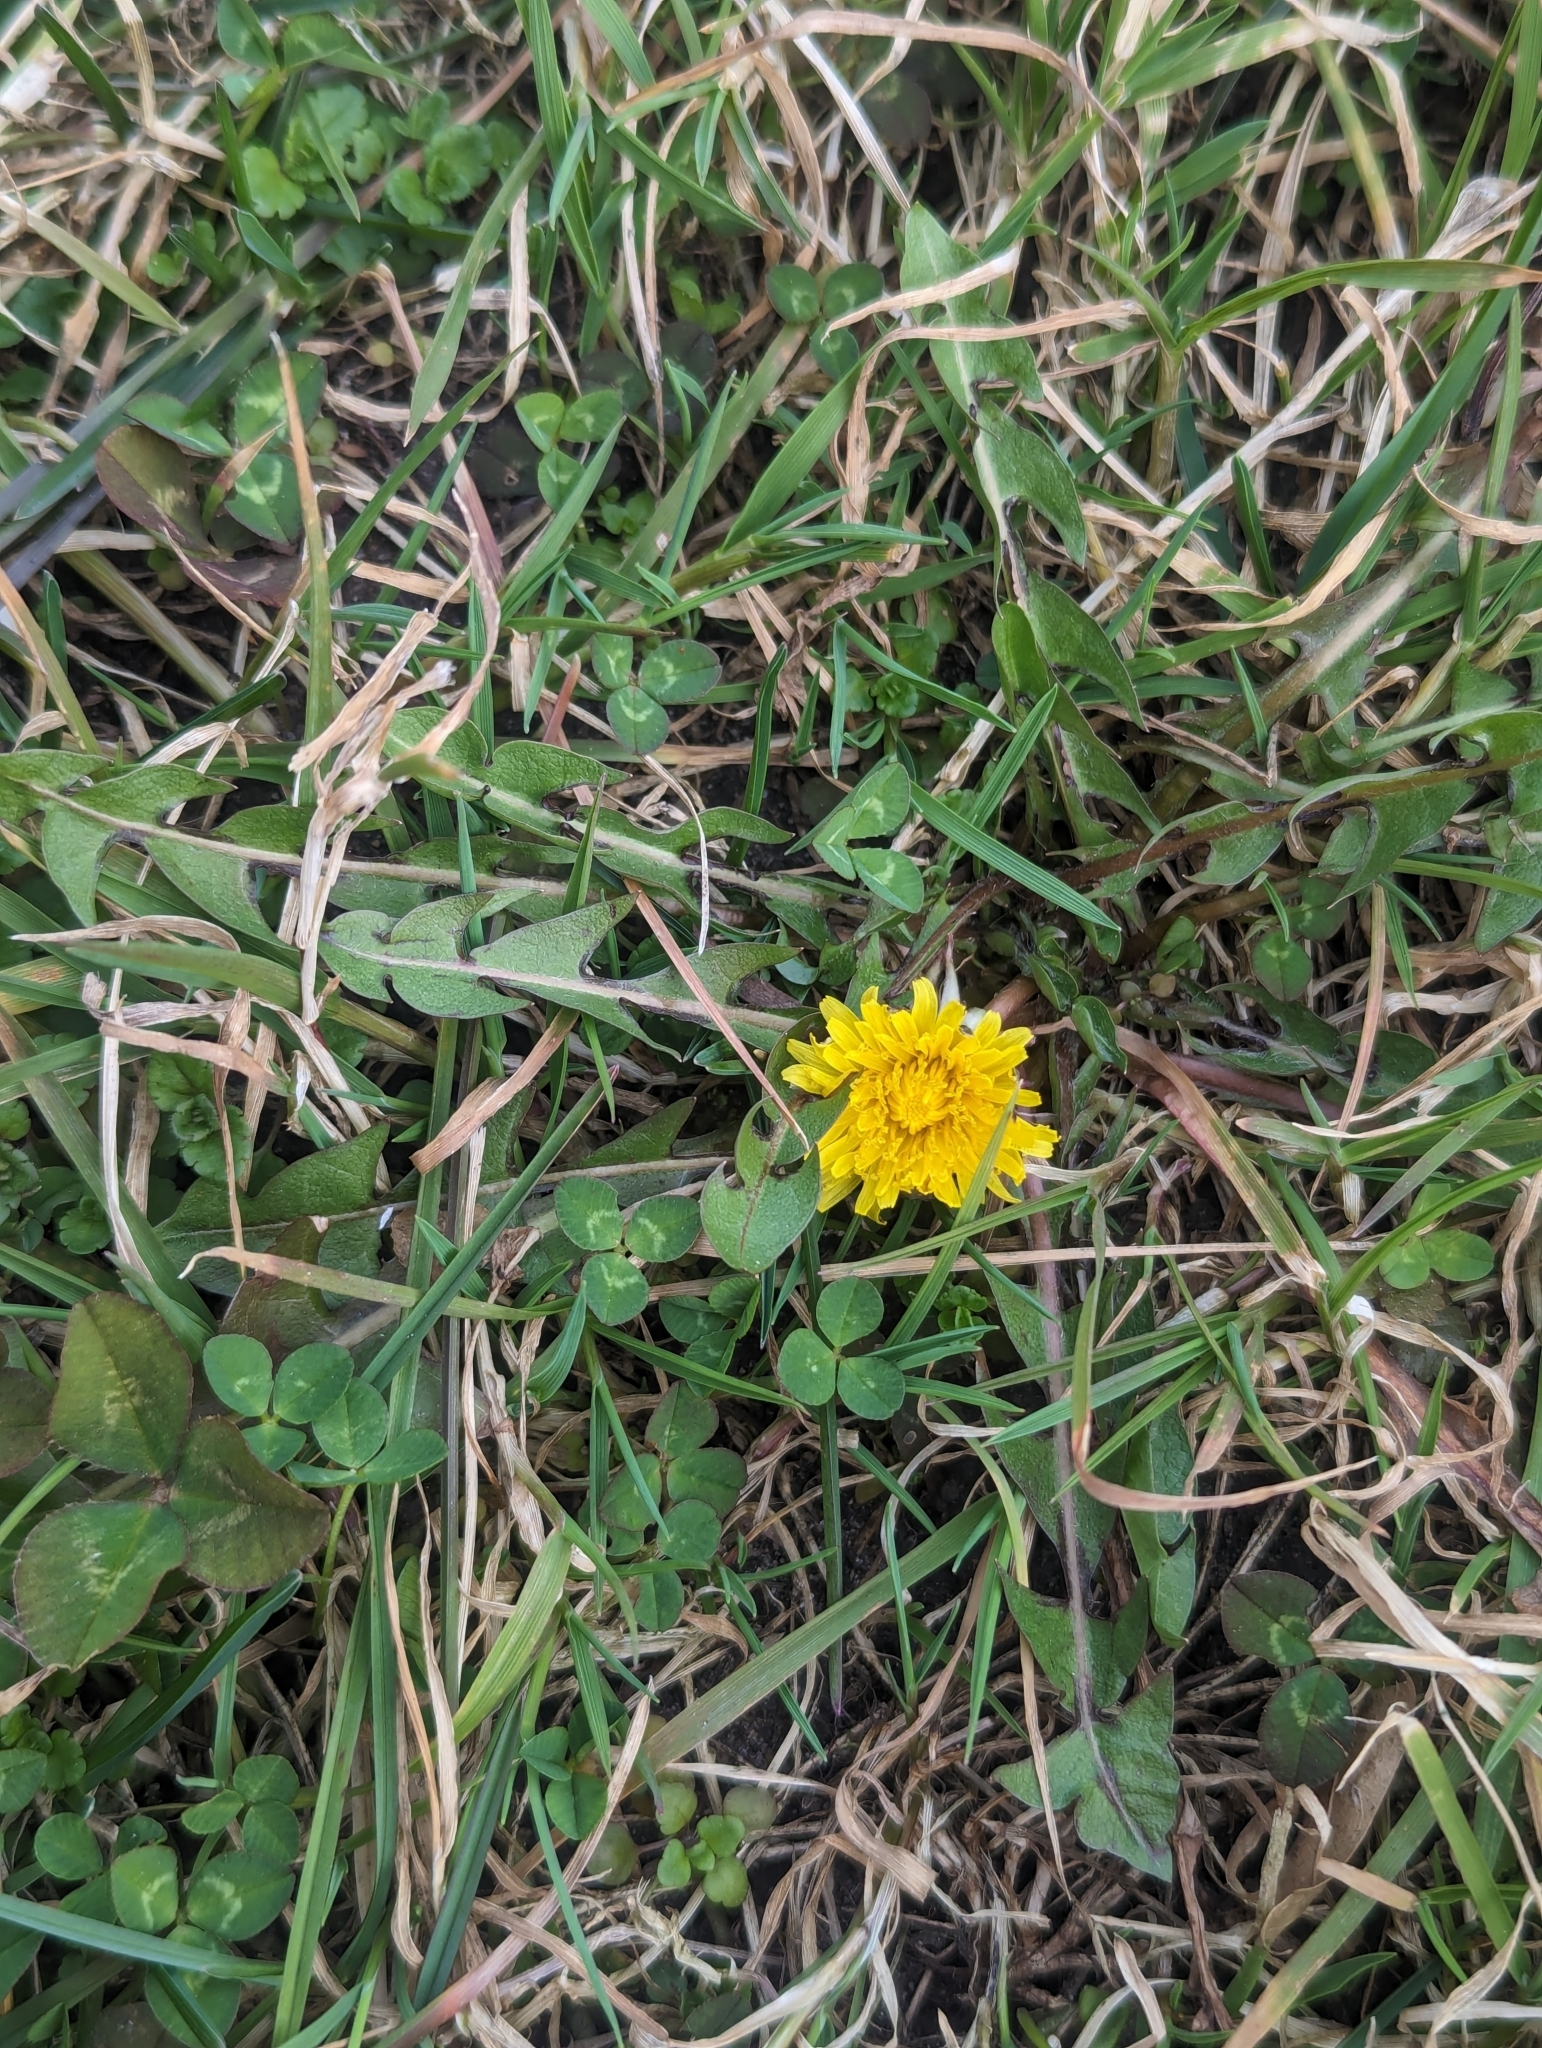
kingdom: Plantae
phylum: Tracheophyta
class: Magnoliopsida
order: Asterales
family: Asteraceae
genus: Taraxacum
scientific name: Taraxacum
